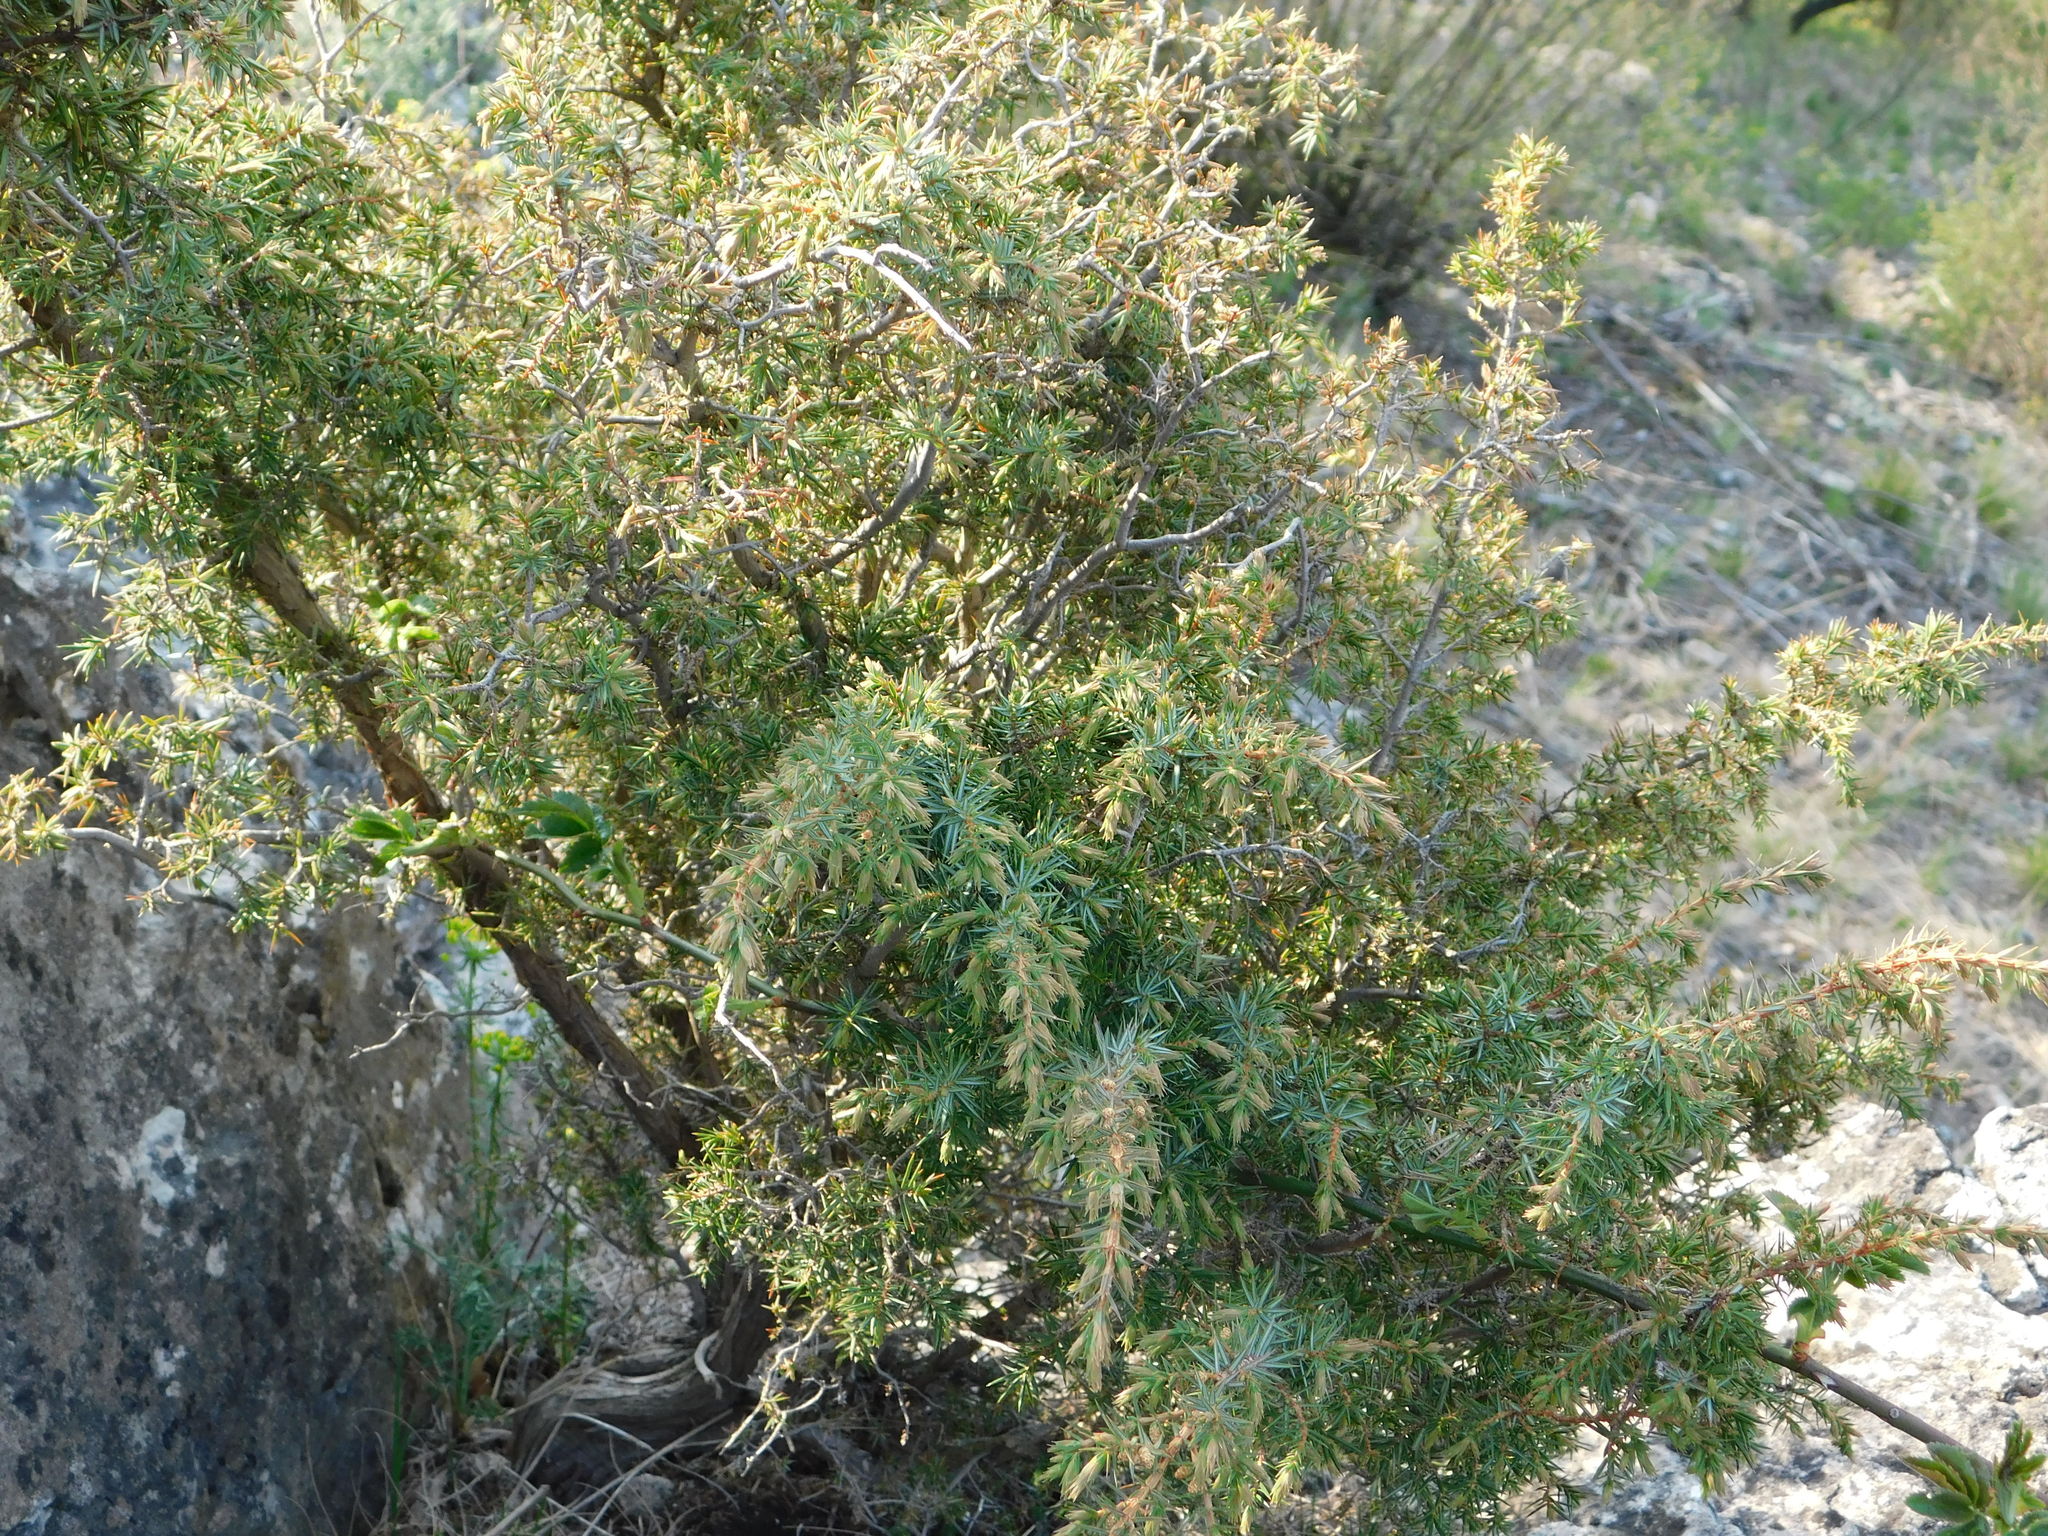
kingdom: Plantae
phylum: Tracheophyta
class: Pinopsida
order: Pinales
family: Cupressaceae
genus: Juniperus
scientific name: Juniperus communis
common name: Common juniper
